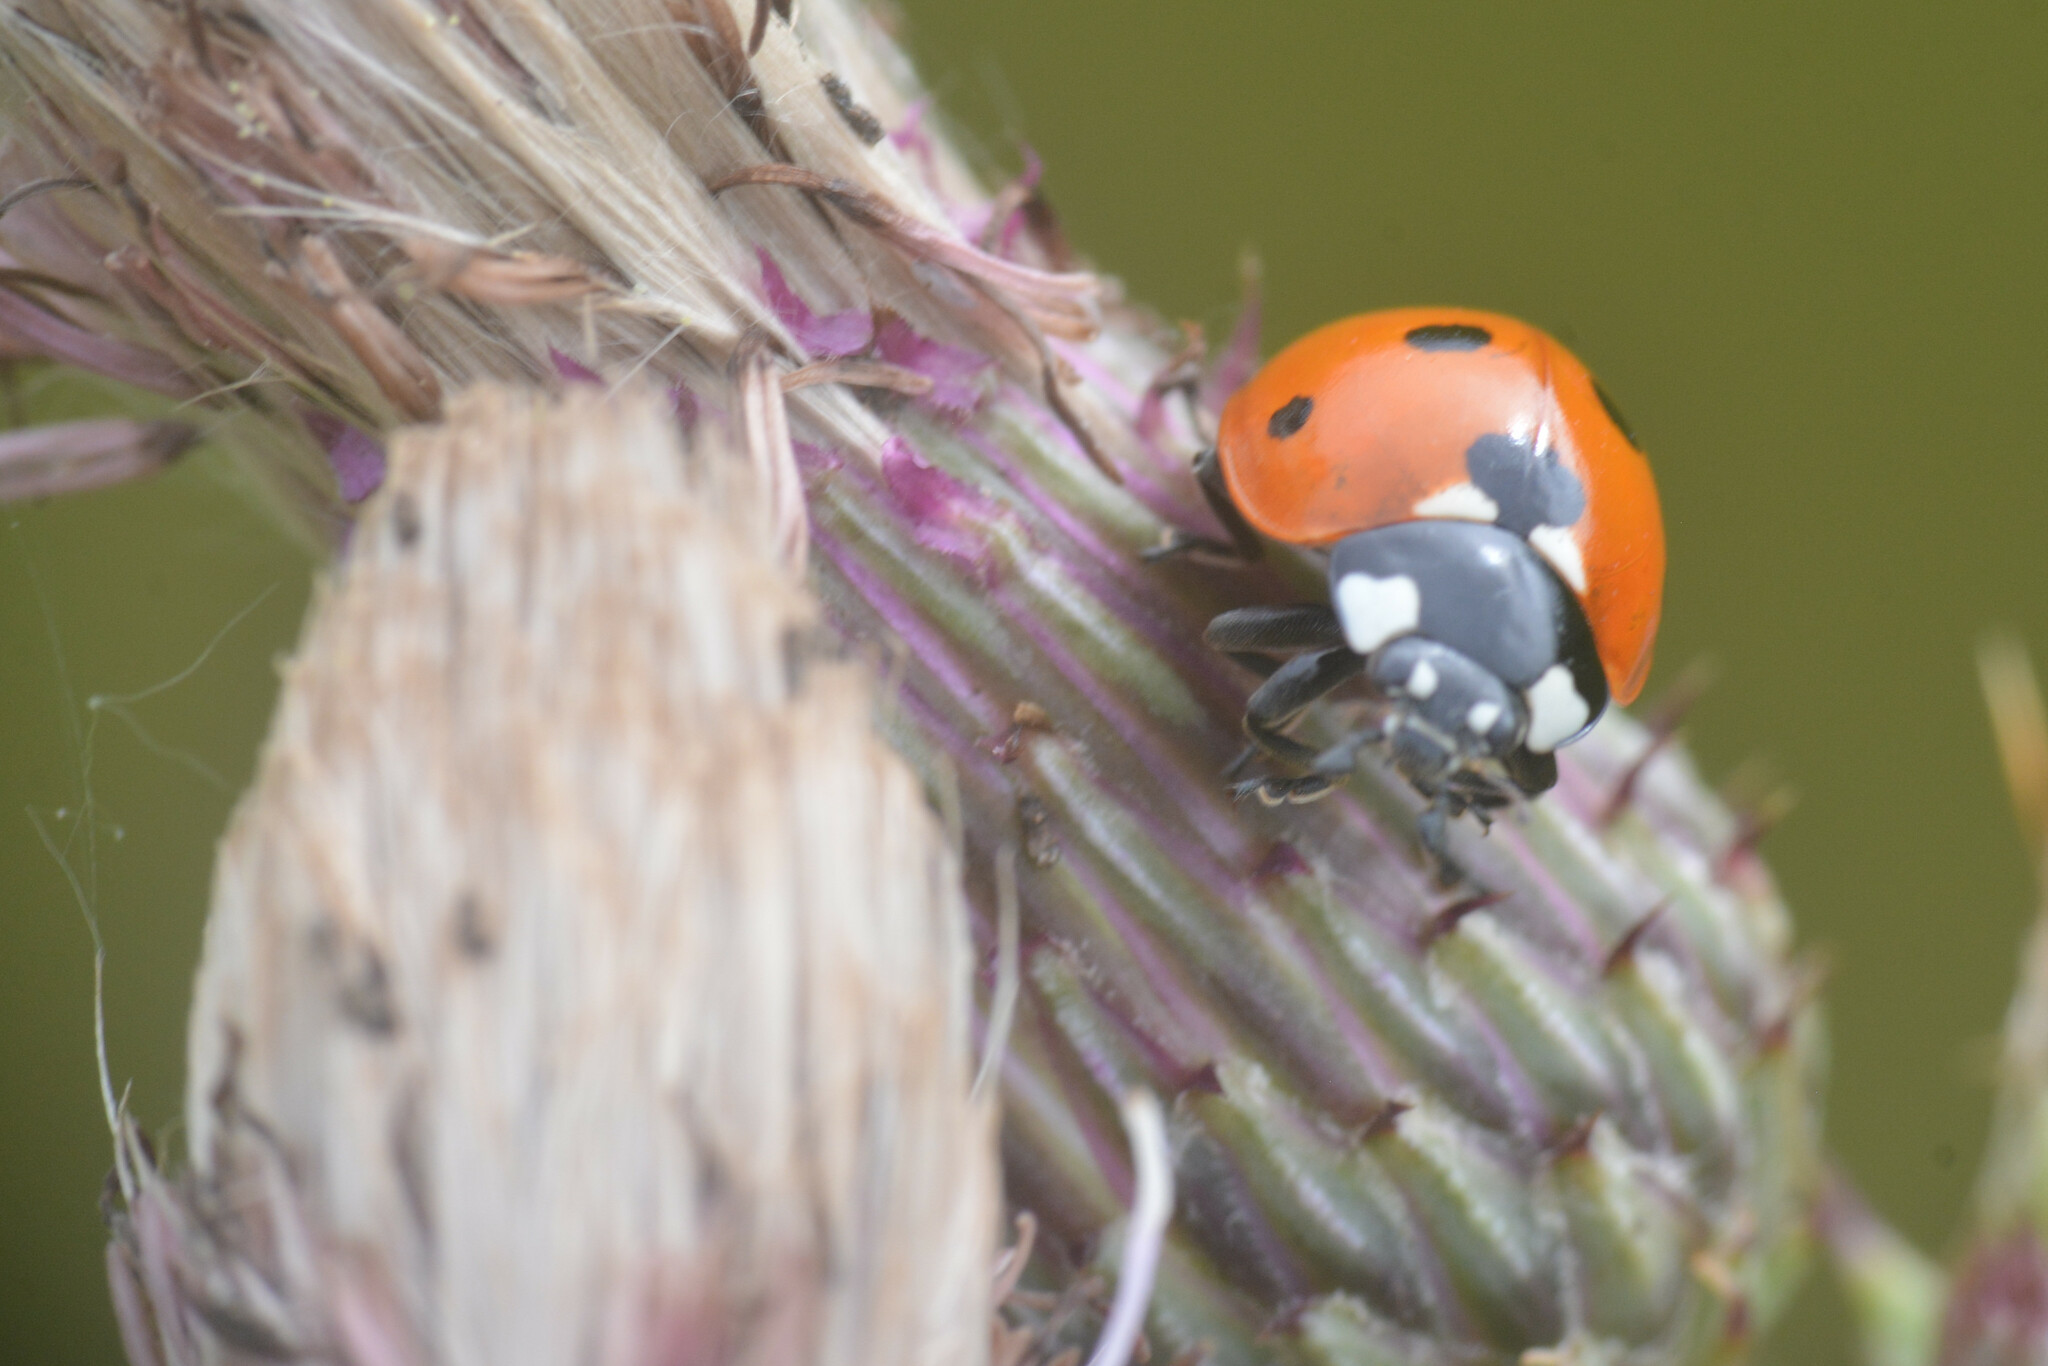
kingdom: Animalia
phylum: Arthropoda
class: Insecta
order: Coleoptera
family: Coccinellidae
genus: Coccinella
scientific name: Coccinella septempunctata
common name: Sevenspotted lady beetle
